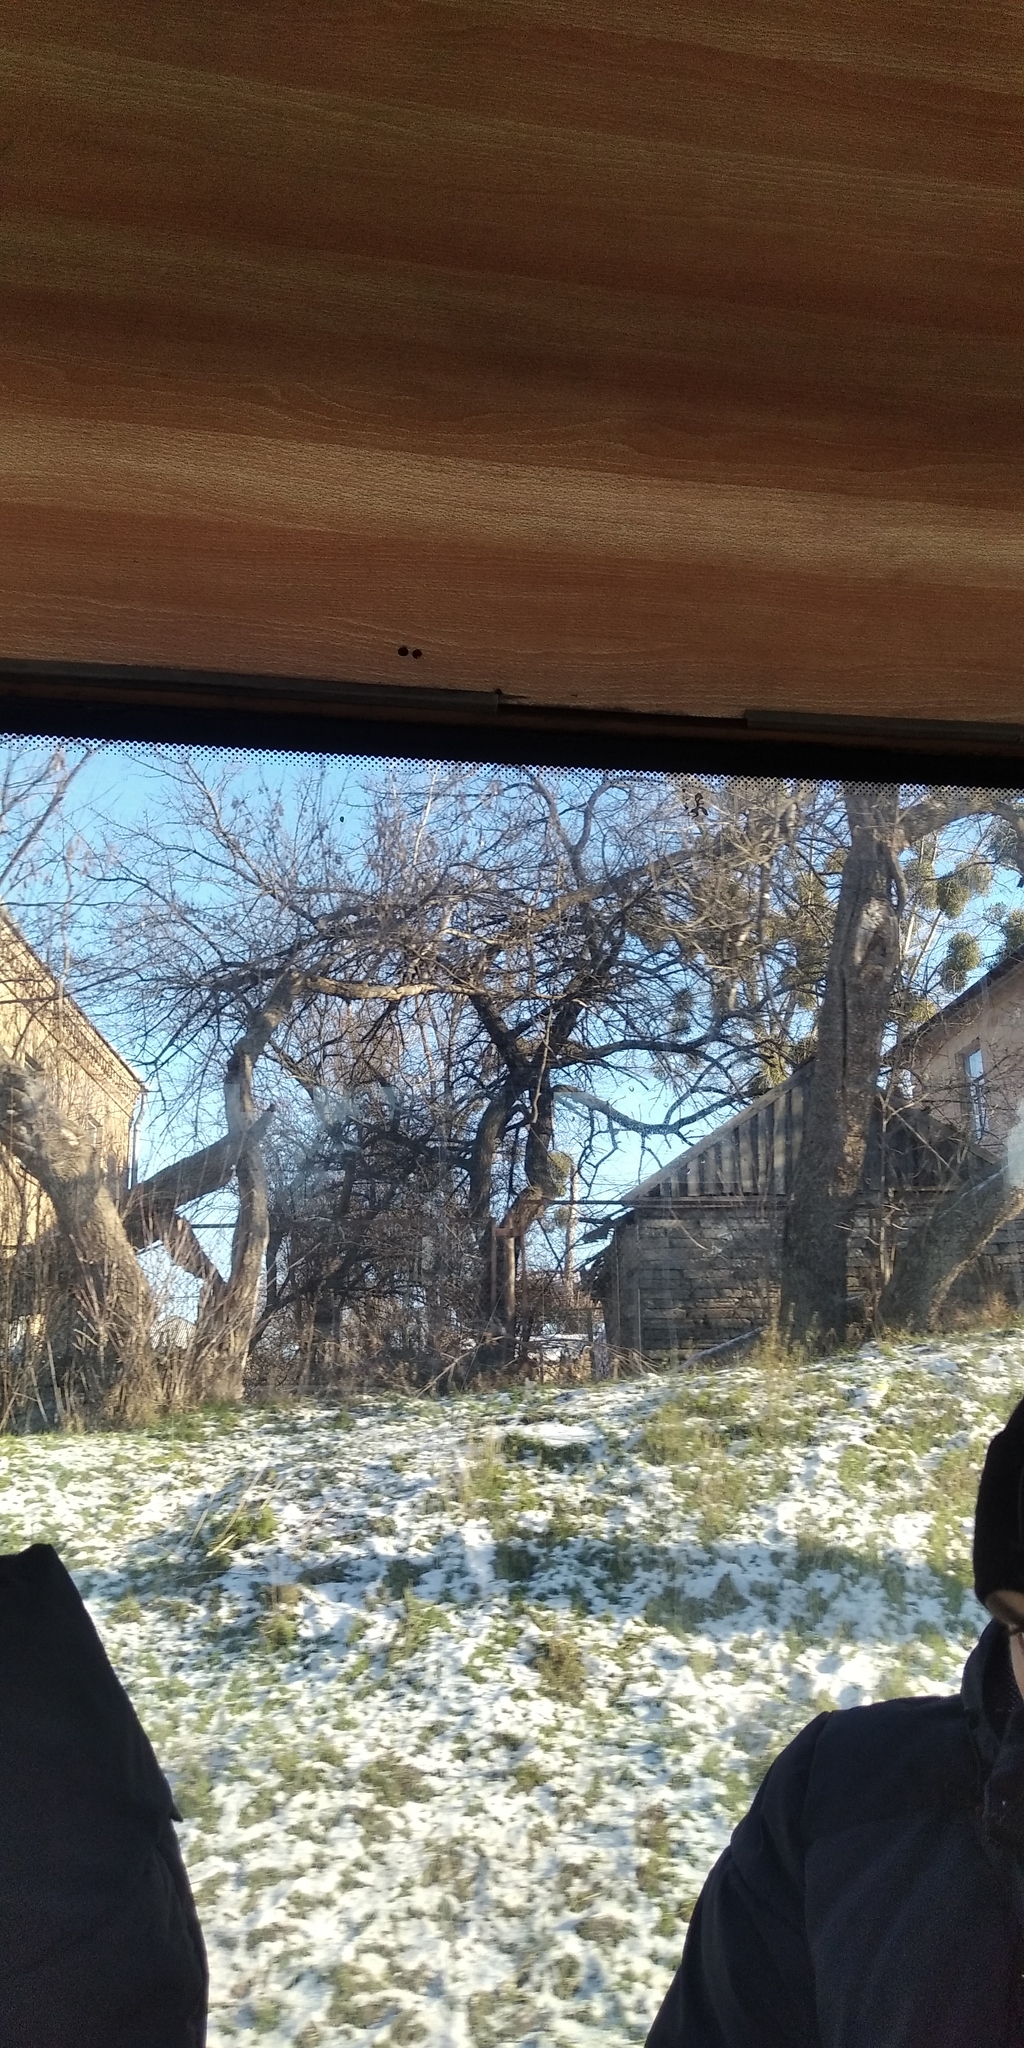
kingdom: Plantae
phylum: Tracheophyta
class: Magnoliopsida
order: Santalales
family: Viscaceae
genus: Viscum
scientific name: Viscum album
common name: Mistletoe
